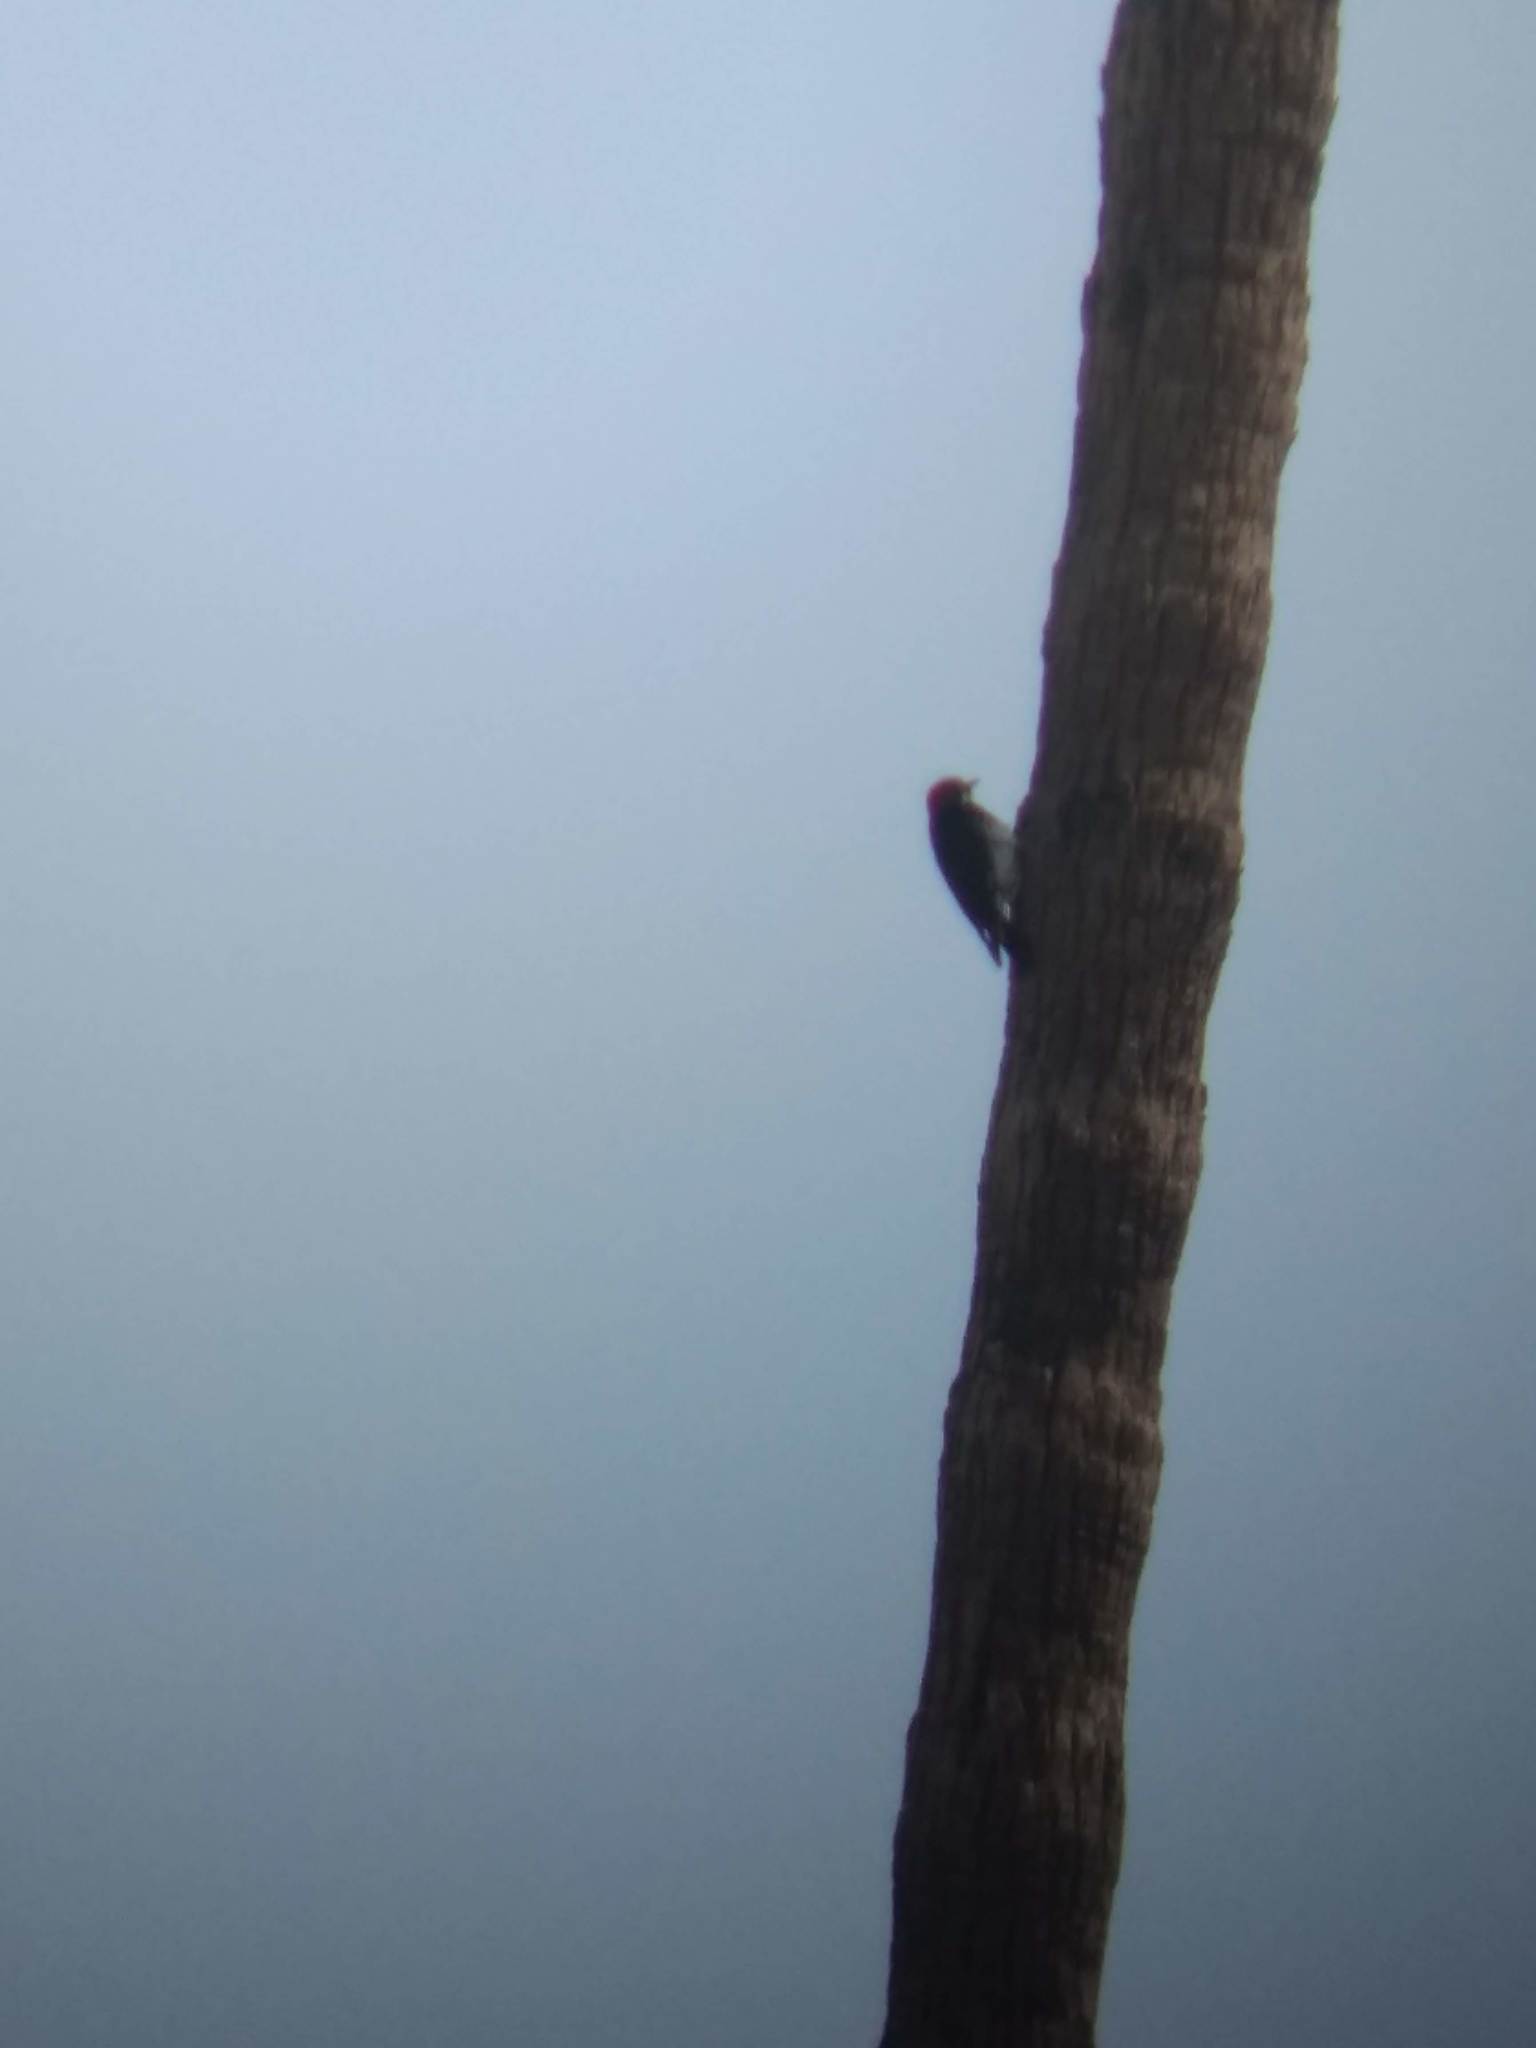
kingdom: Animalia
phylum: Chordata
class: Aves
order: Piciformes
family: Picidae
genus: Melanerpes
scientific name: Melanerpes formicivorus
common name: Acorn woodpecker
